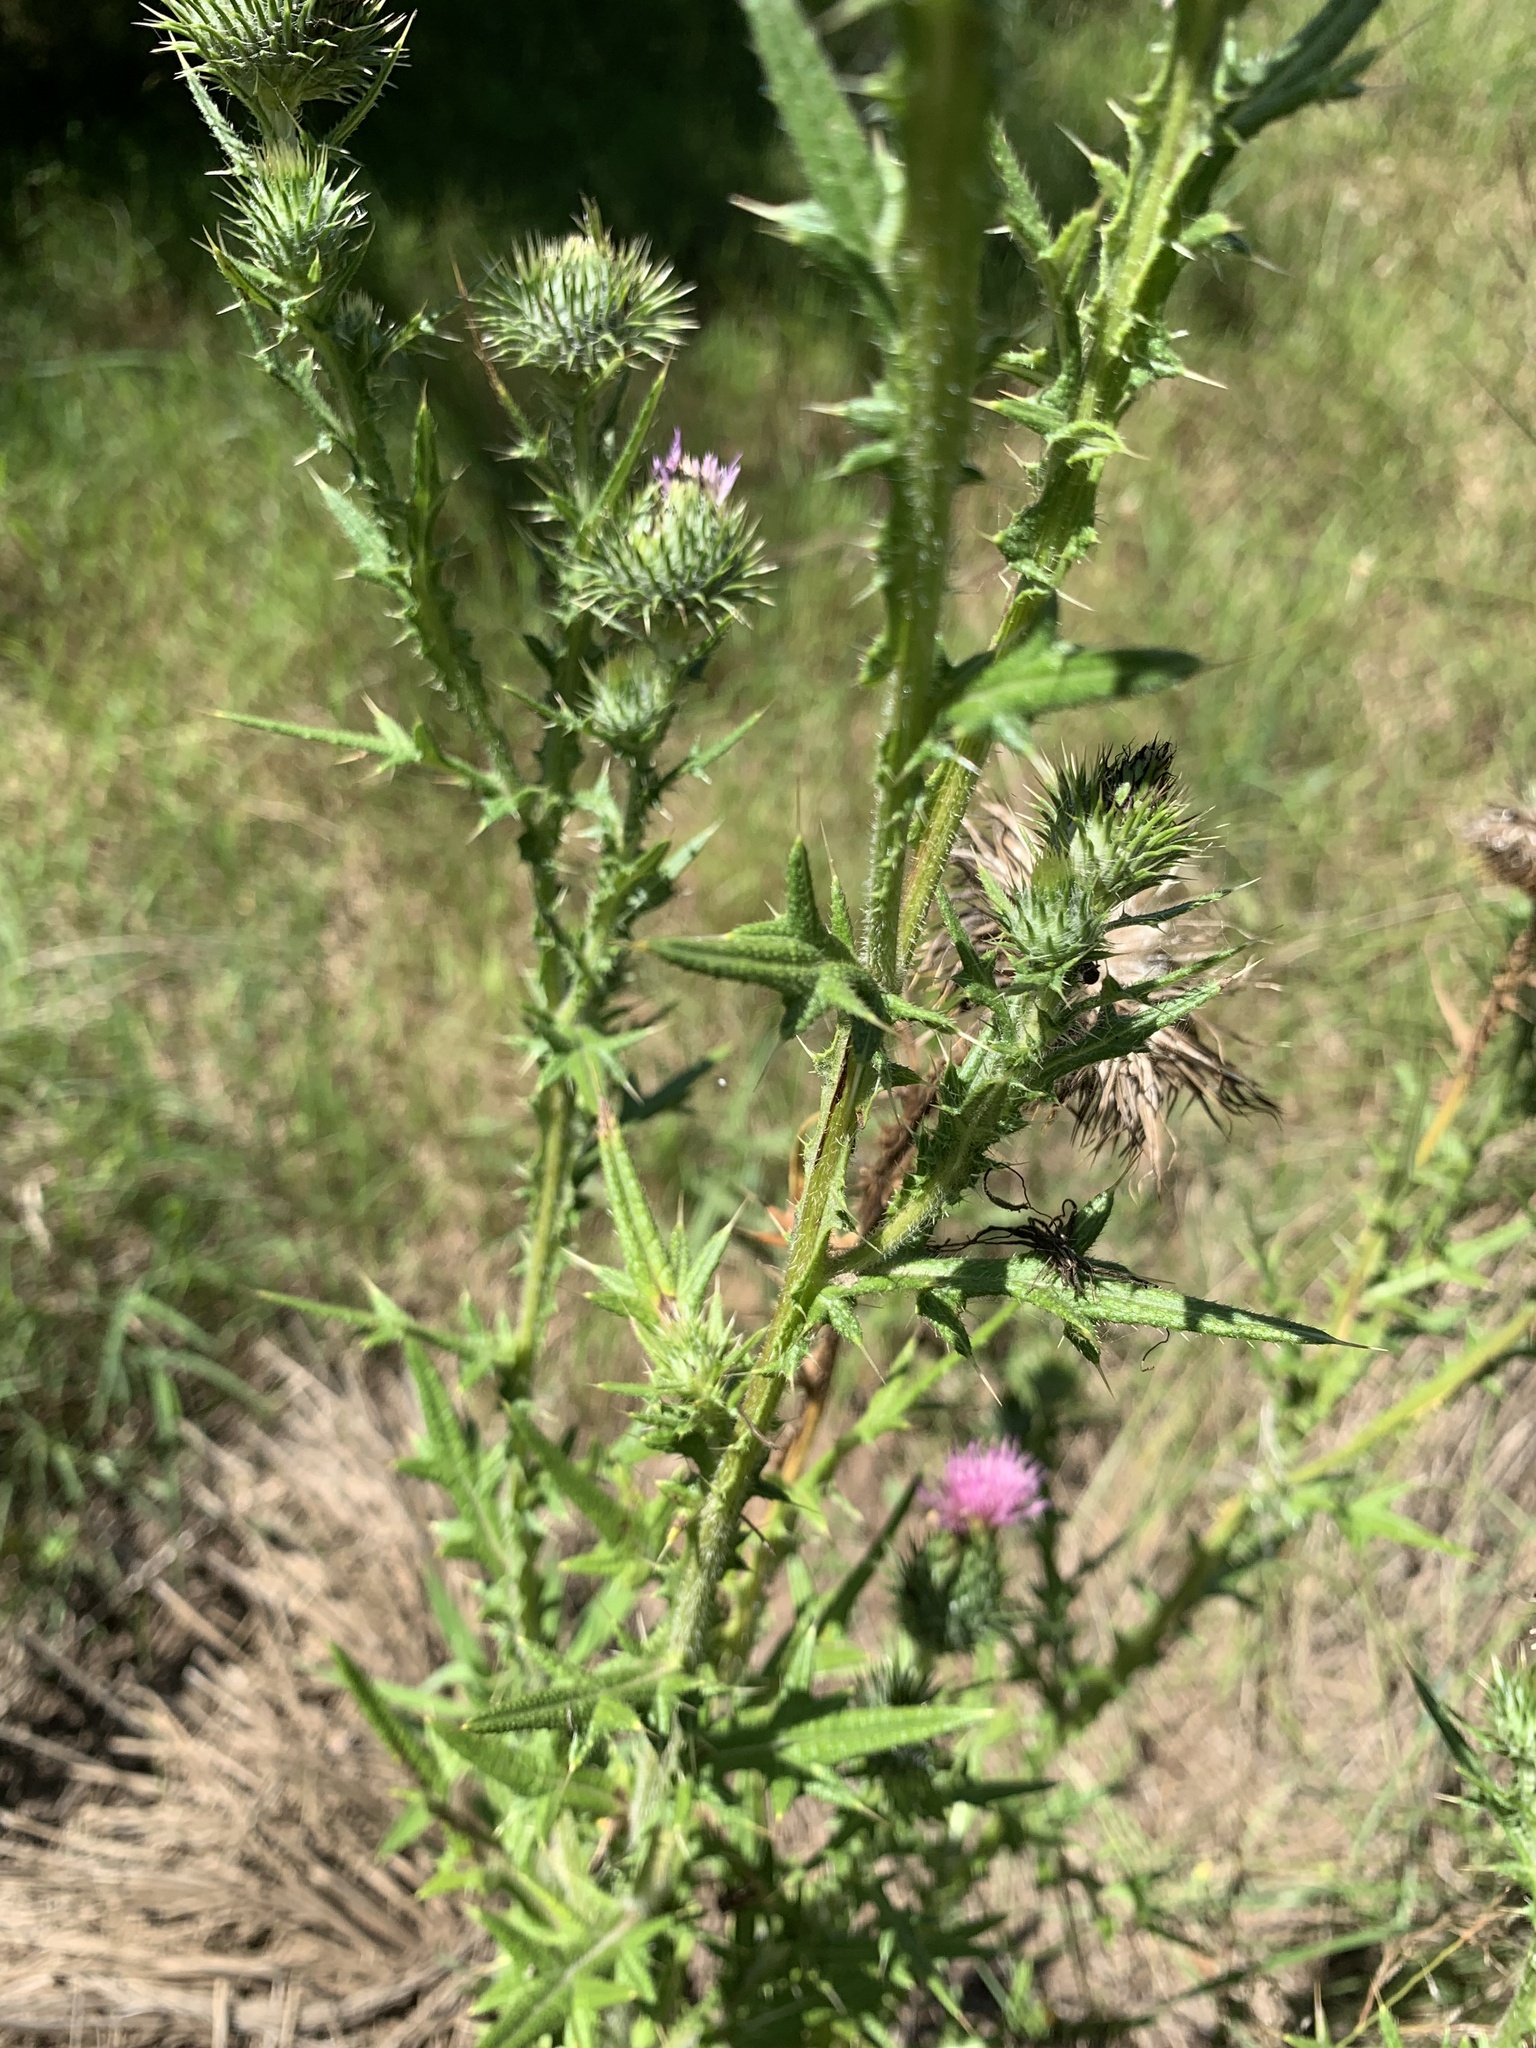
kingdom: Plantae
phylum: Tracheophyta
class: Magnoliopsida
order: Asterales
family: Asteraceae
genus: Cirsium
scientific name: Cirsium vulgare
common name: Bull thistle
